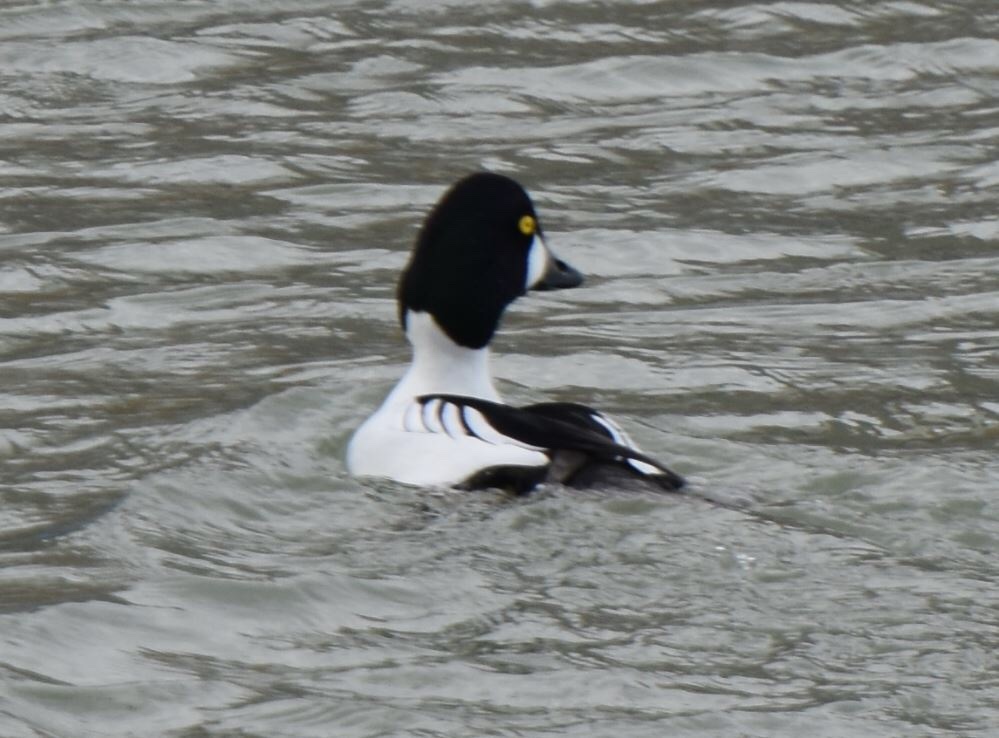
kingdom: Animalia
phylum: Chordata
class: Aves
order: Anseriformes
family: Anatidae
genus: Bucephala
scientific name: Bucephala clangula
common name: Common goldeneye
